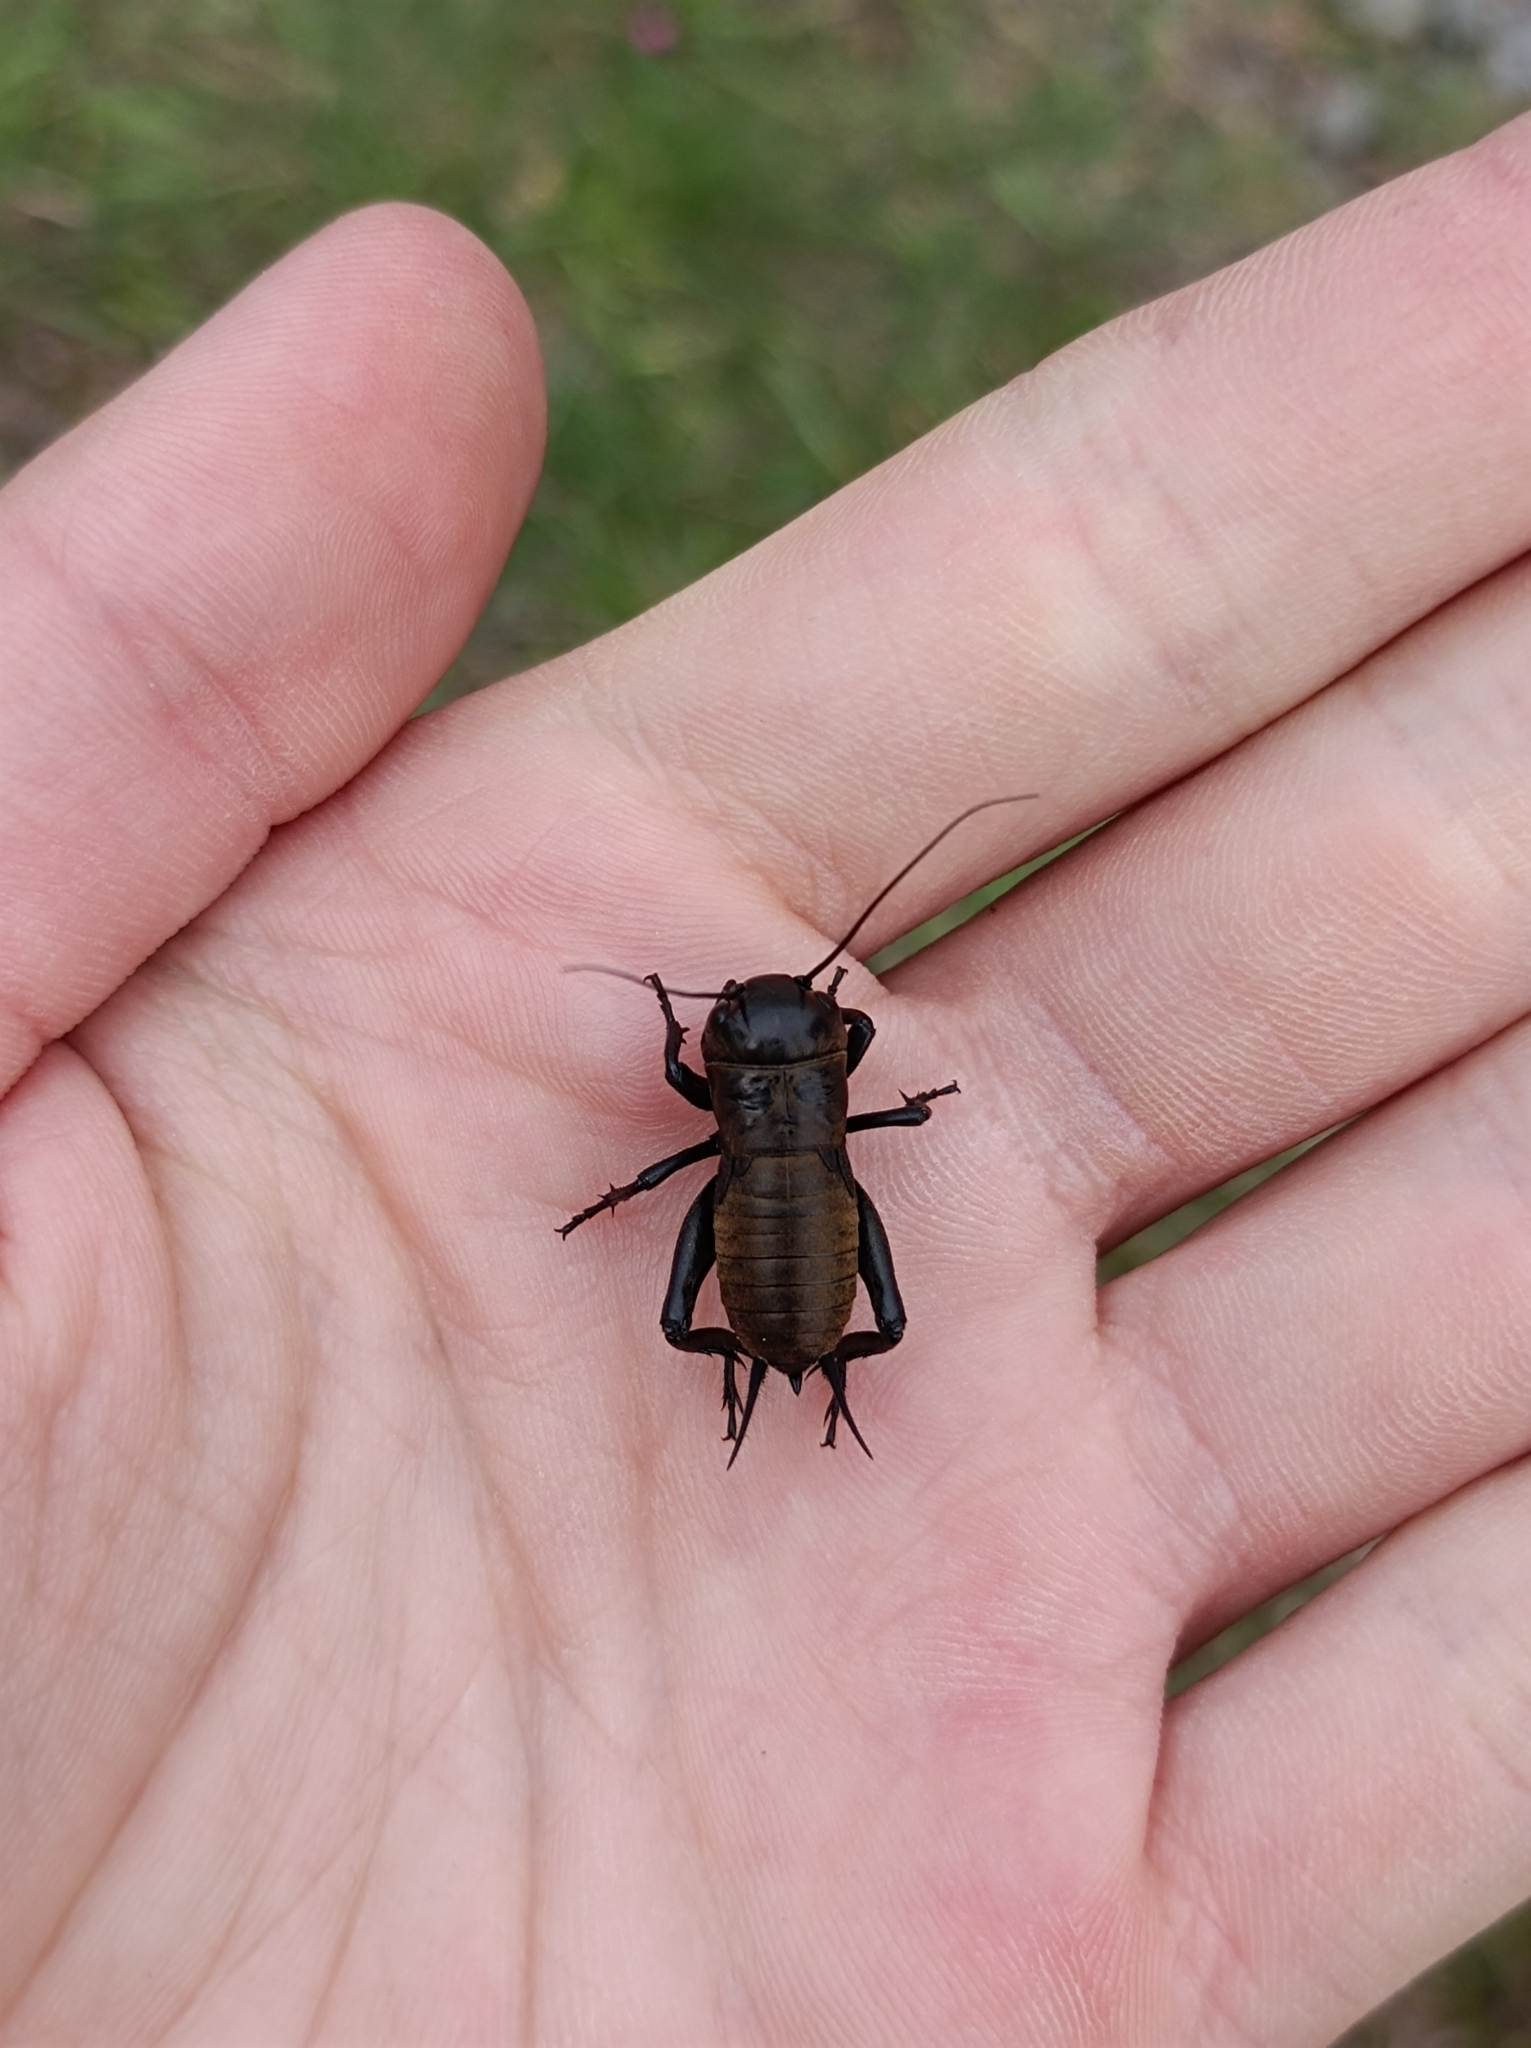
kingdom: Animalia
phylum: Arthropoda
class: Insecta
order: Orthoptera
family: Gryllidae
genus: Gryllus
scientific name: Gryllus campestris
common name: Field cricket
